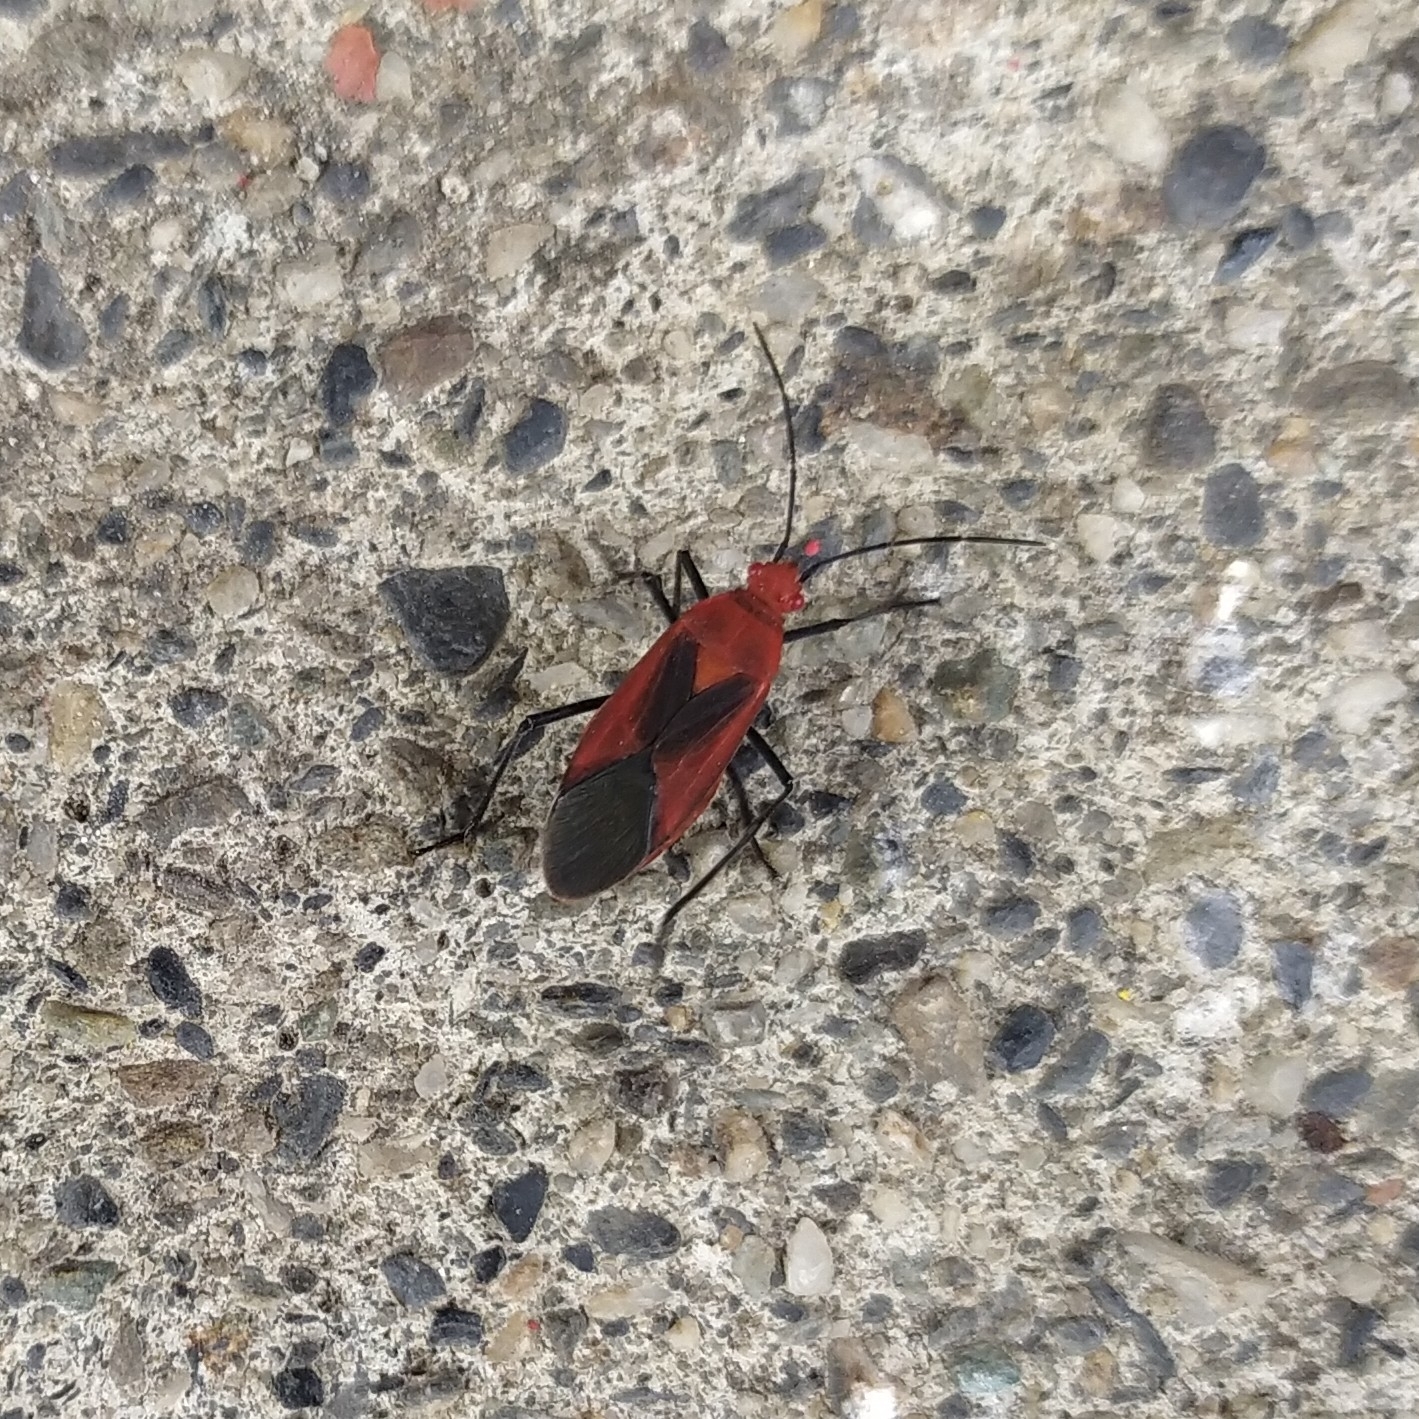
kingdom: Animalia
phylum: Arthropoda
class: Insecta
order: Hemiptera
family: Rhopalidae
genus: Leptocoris
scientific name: Leptocoris vicinus
